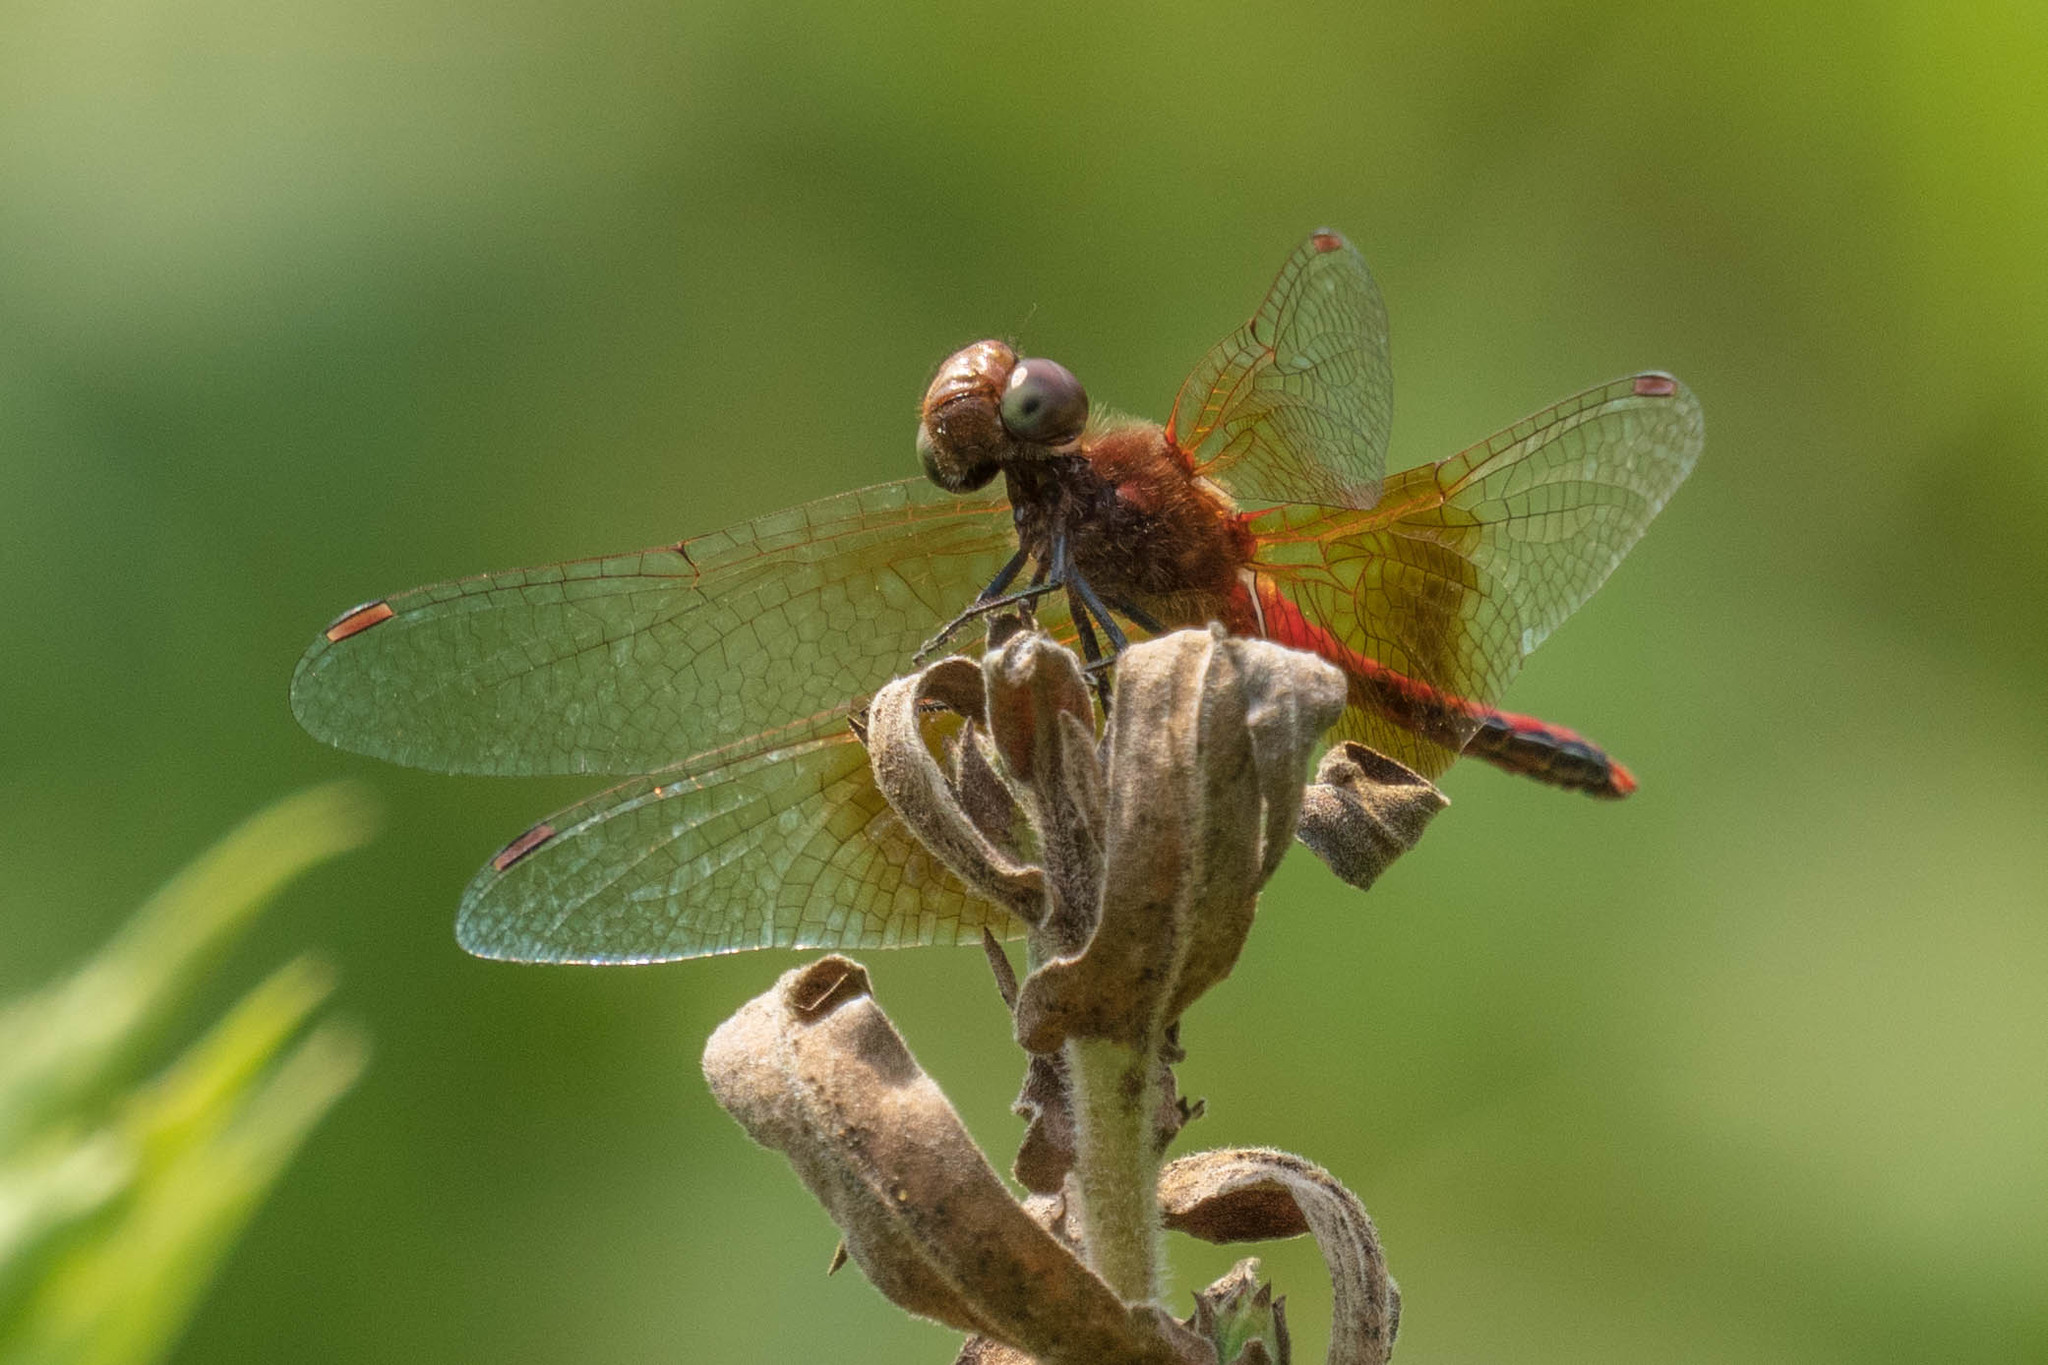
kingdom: Animalia
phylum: Arthropoda
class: Insecta
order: Odonata
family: Libellulidae
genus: Sympetrum
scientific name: Sympetrum semicinctum
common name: Band-winged meadowhawk
